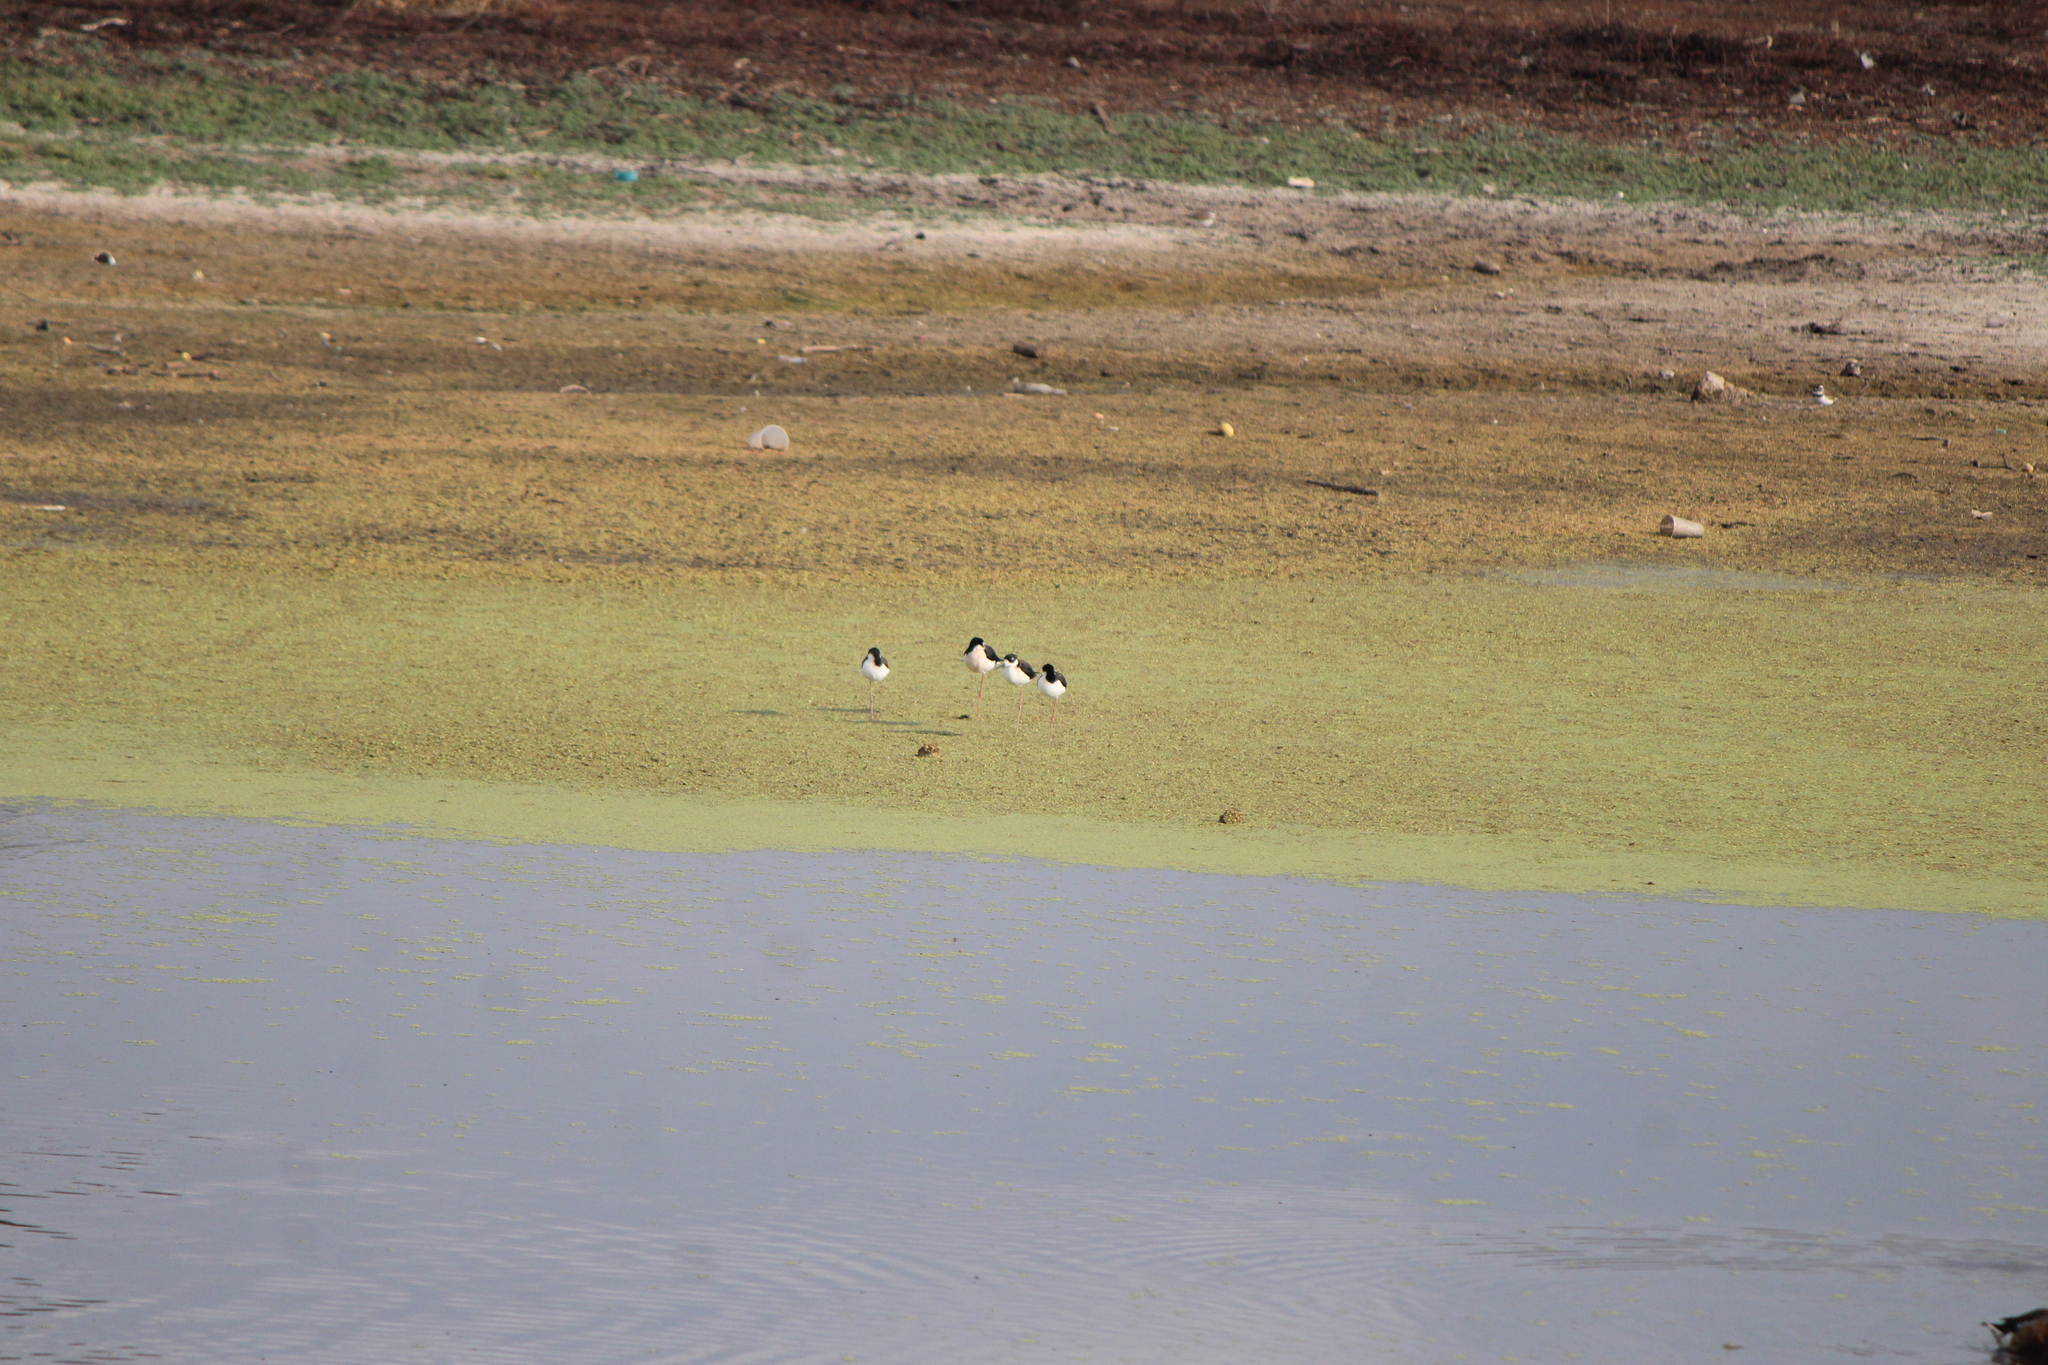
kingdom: Animalia
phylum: Chordata
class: Aves
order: Charadriiformes
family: Recurvirostridae
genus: Himantopus
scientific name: Himantopus mexicanus
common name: Black-necked stilt
